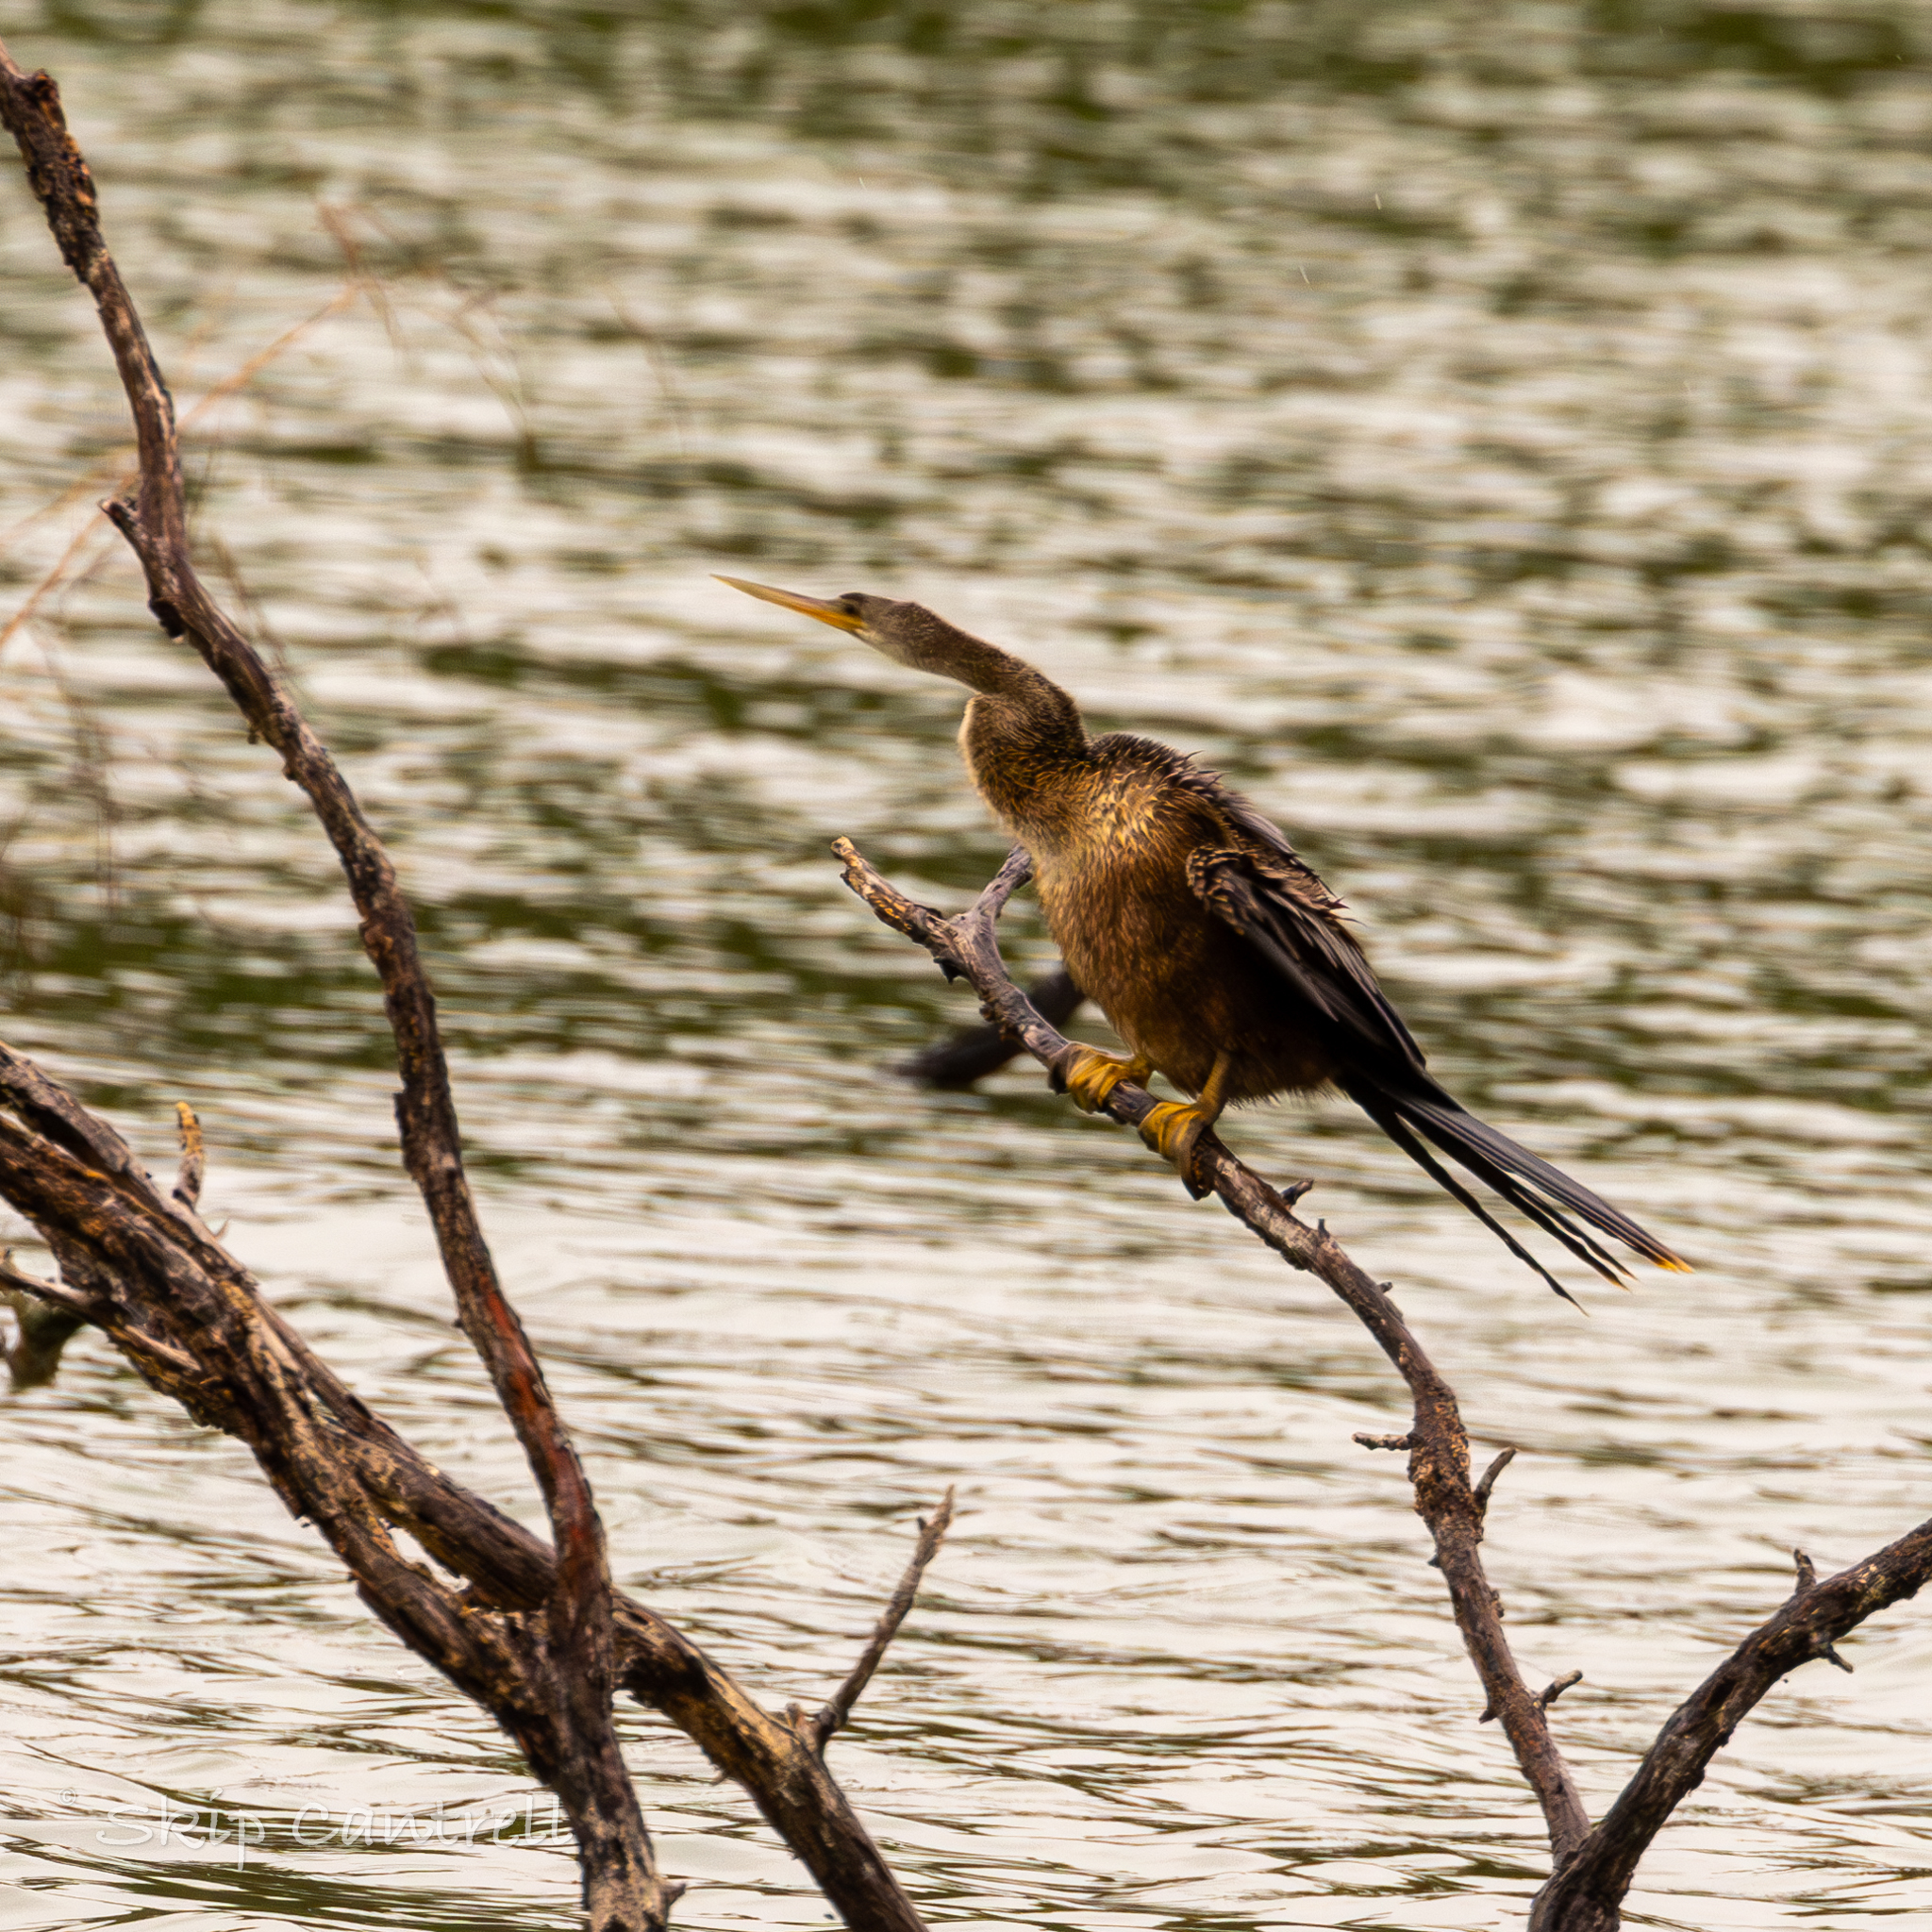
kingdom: Animalia
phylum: Chordata
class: Aves
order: Suliformes
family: Anhingidae
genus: Anhinga
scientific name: Anhinga anhinga
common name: Anhinga
